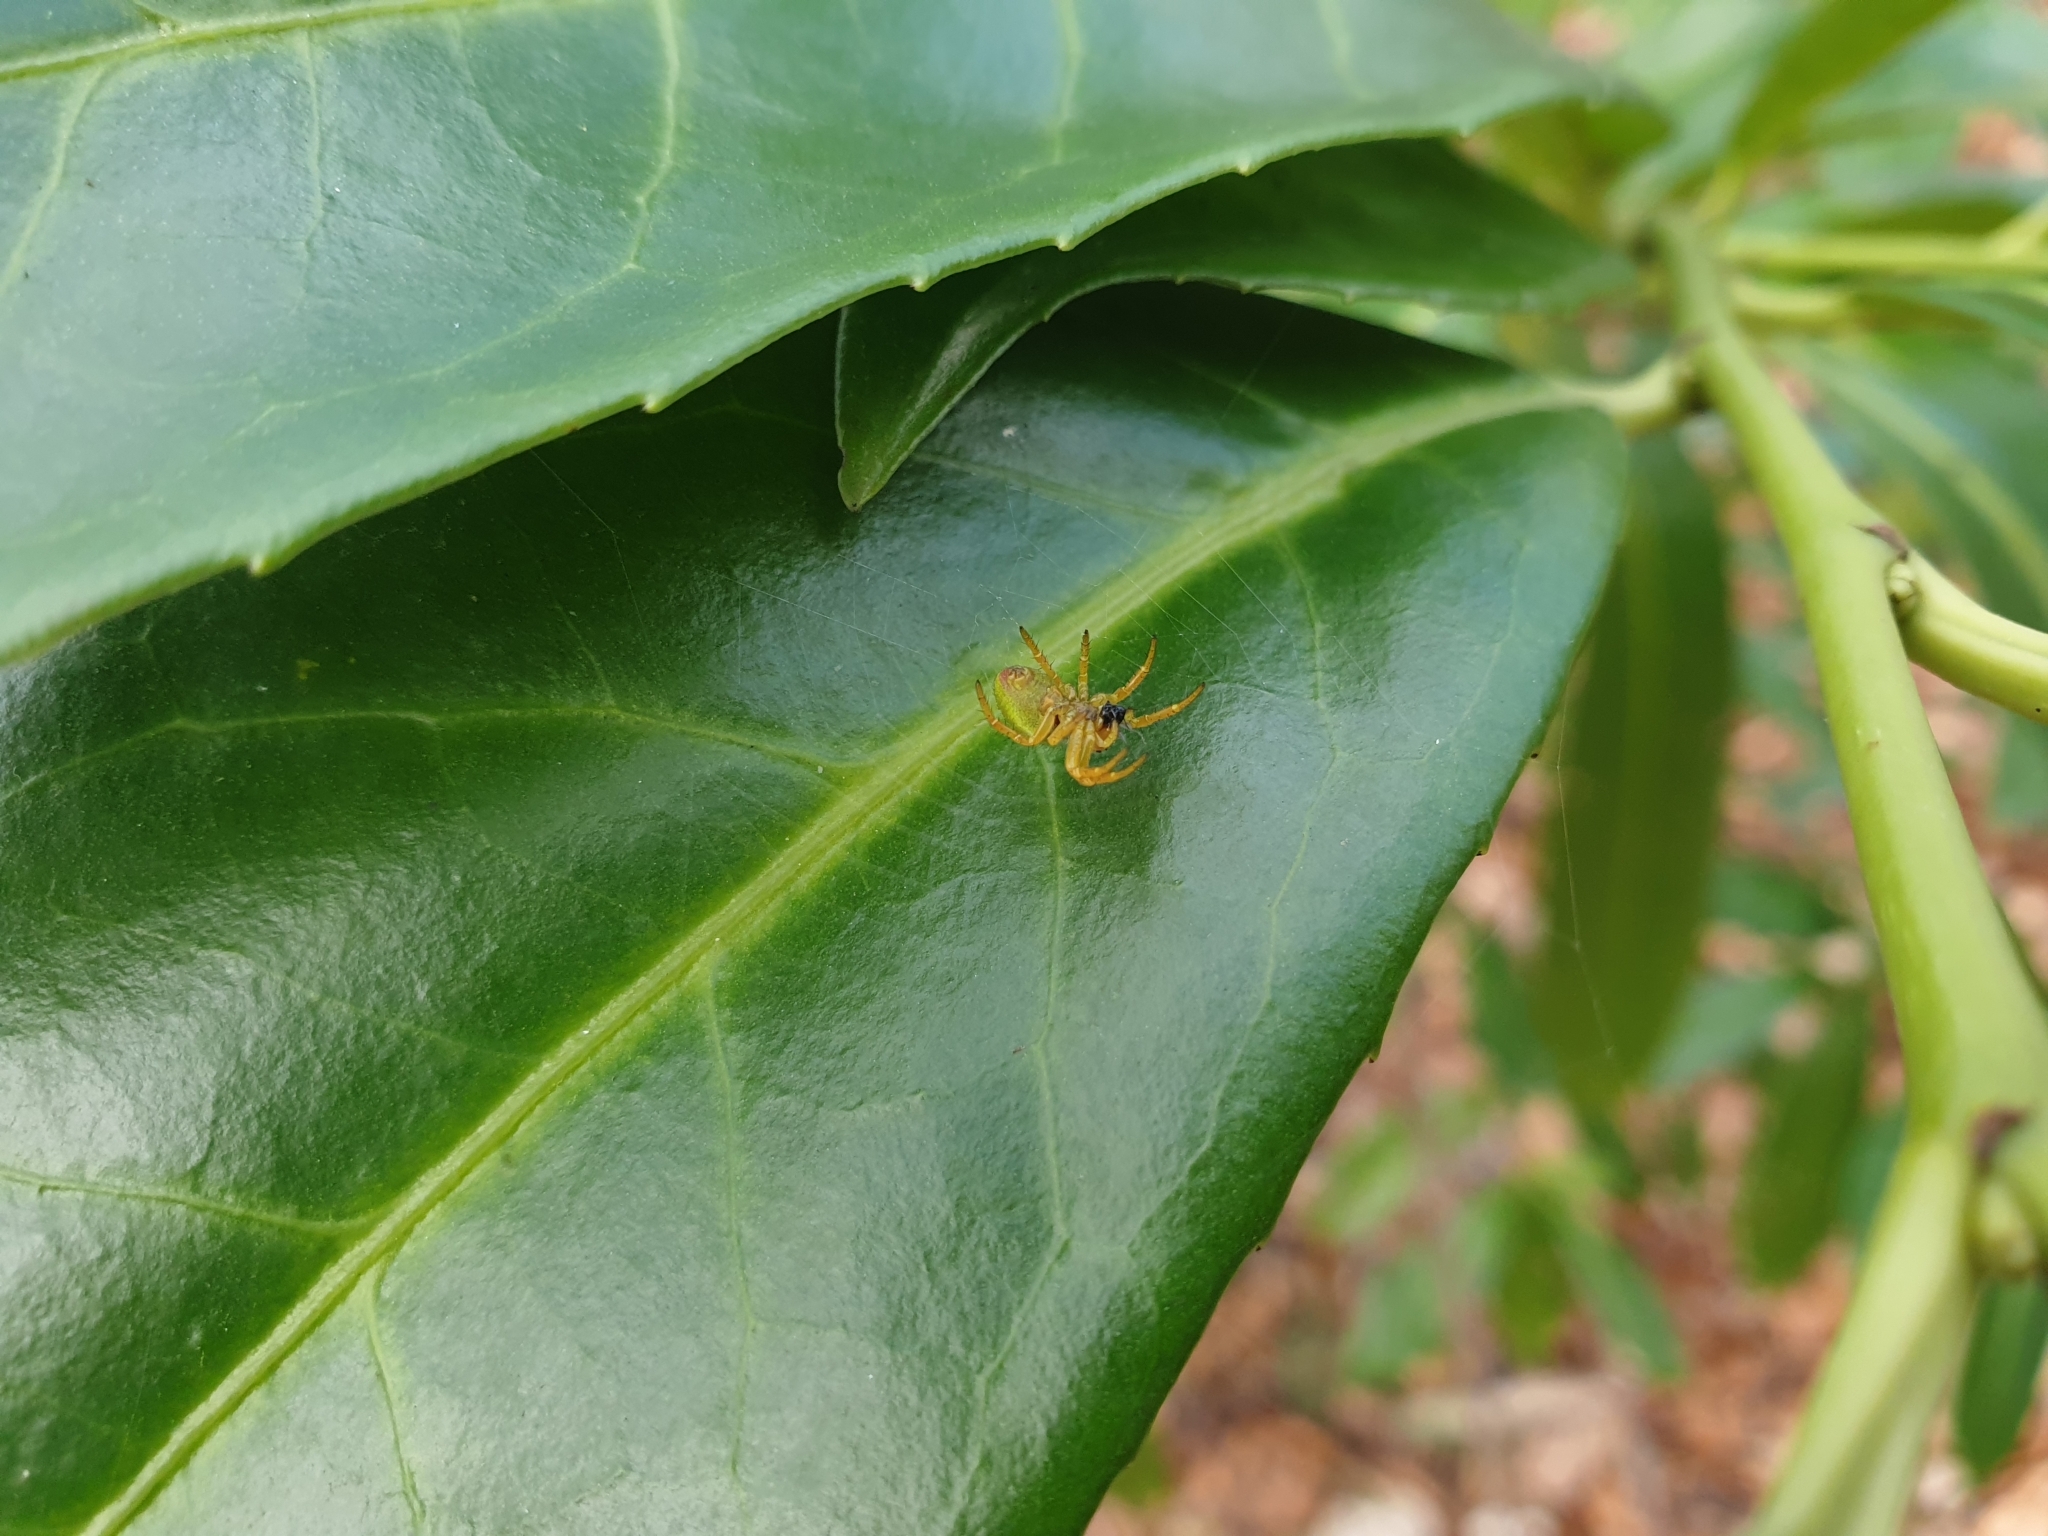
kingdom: Animalia
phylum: Arthropoda
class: Arachnida
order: Araneae
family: Araneidae
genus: Araniella
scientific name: Araniella
